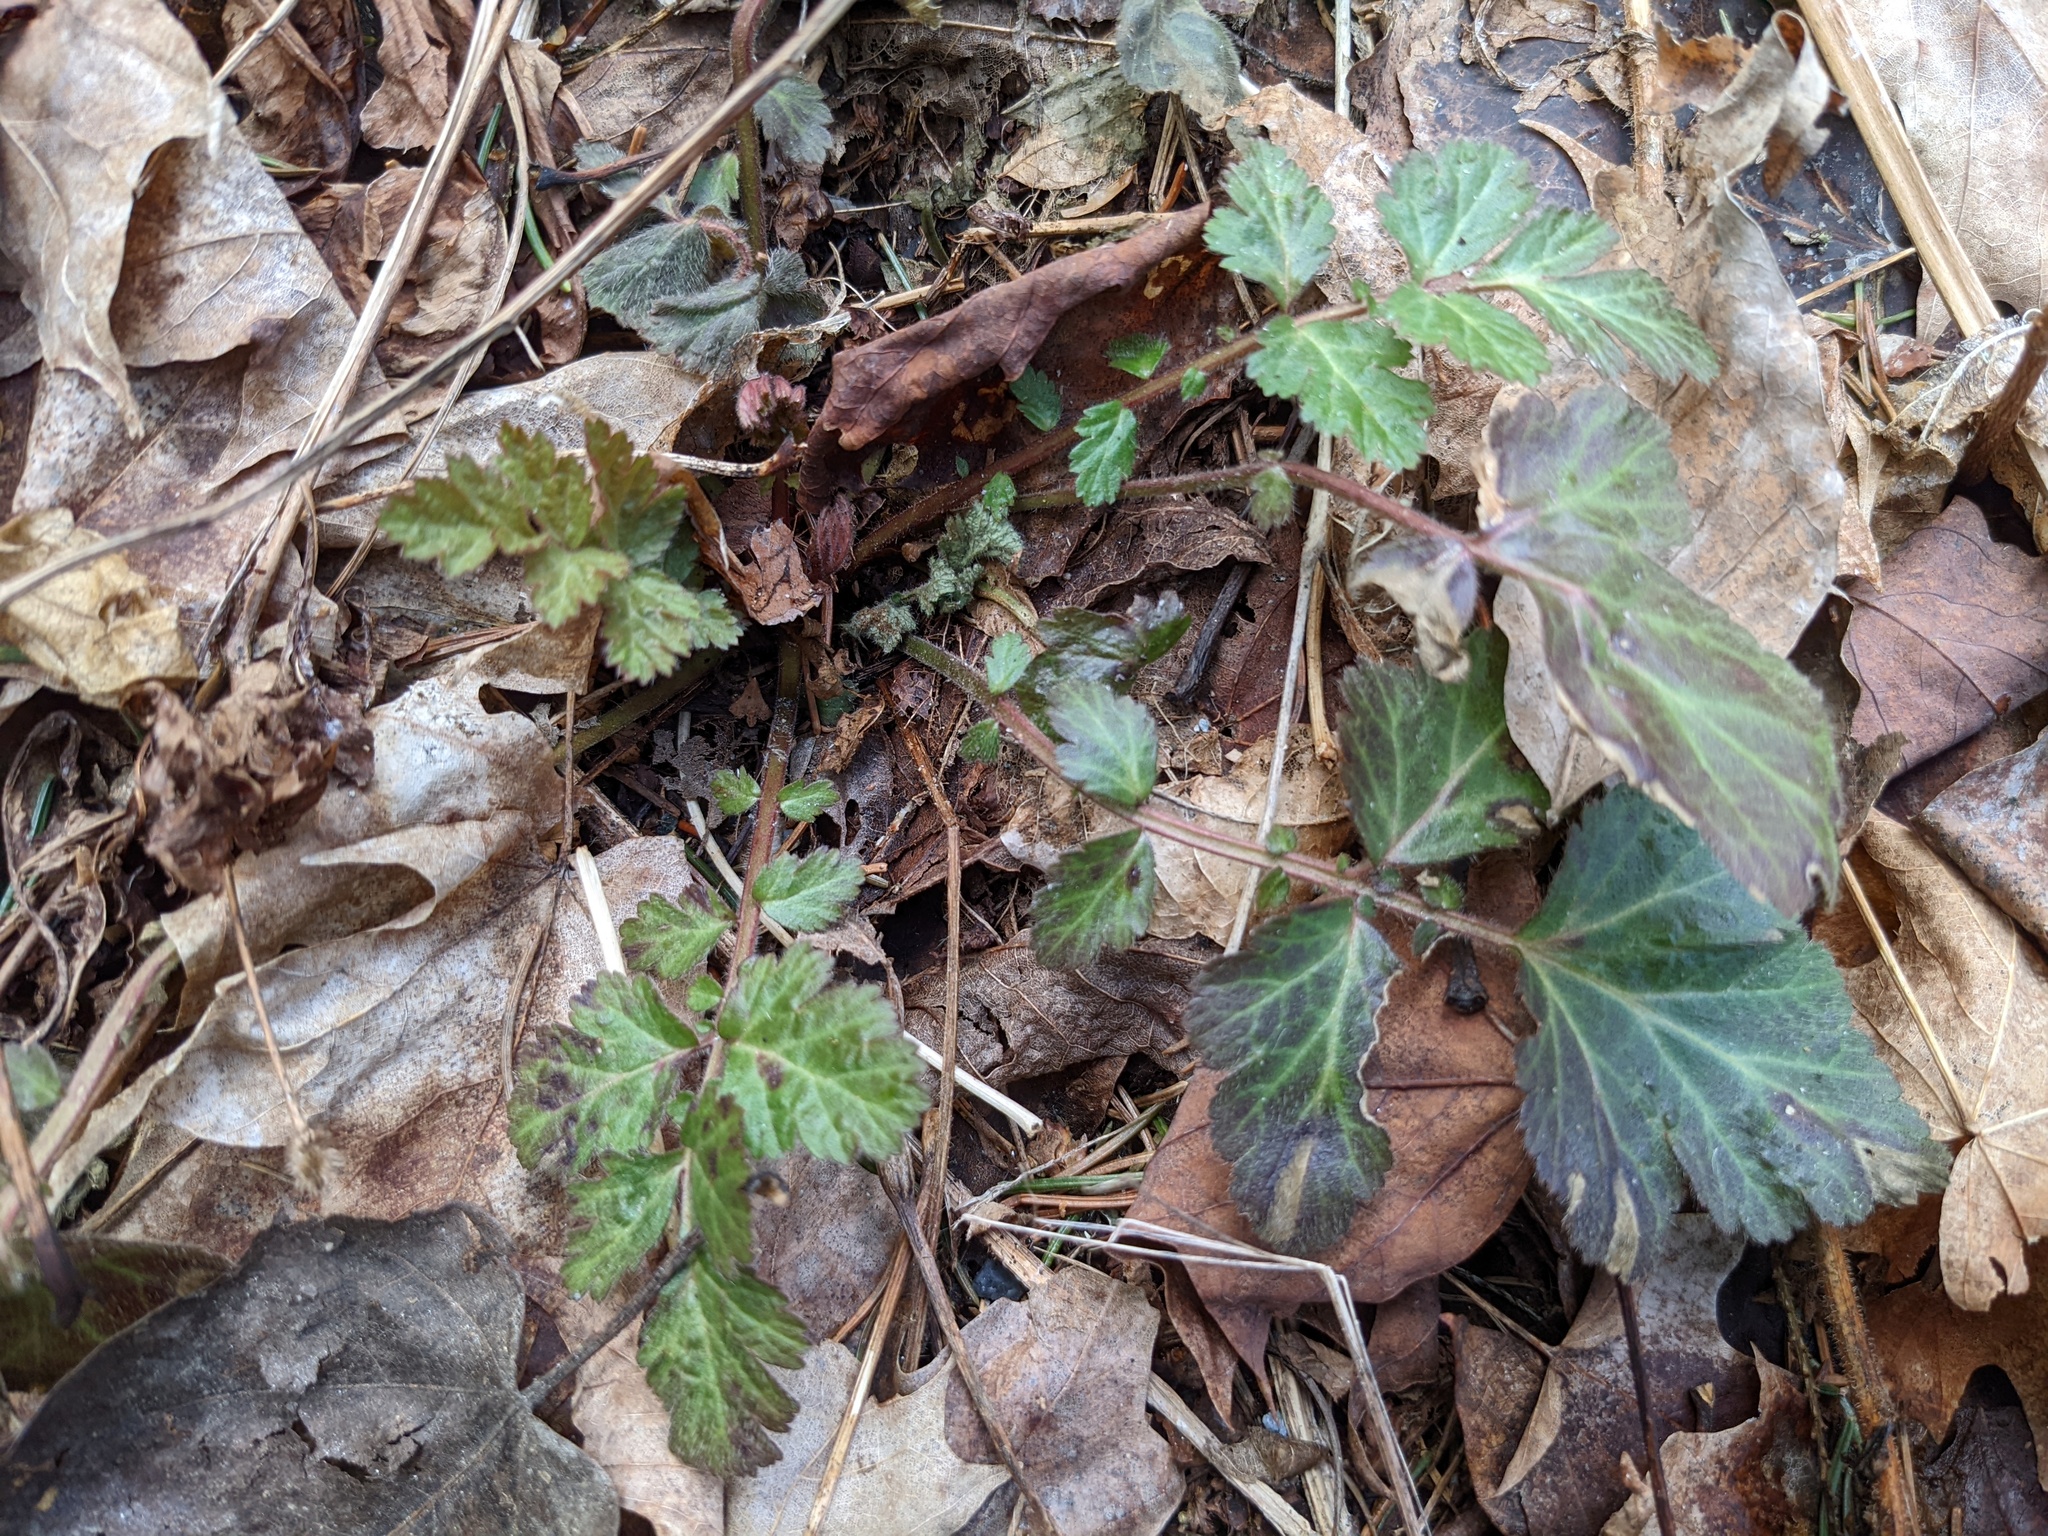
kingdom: Plantae
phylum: Tracheophyta
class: Magnoliopsida
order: Rosales
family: Rosaceae
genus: Geum
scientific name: Geum canadense
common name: White avens
